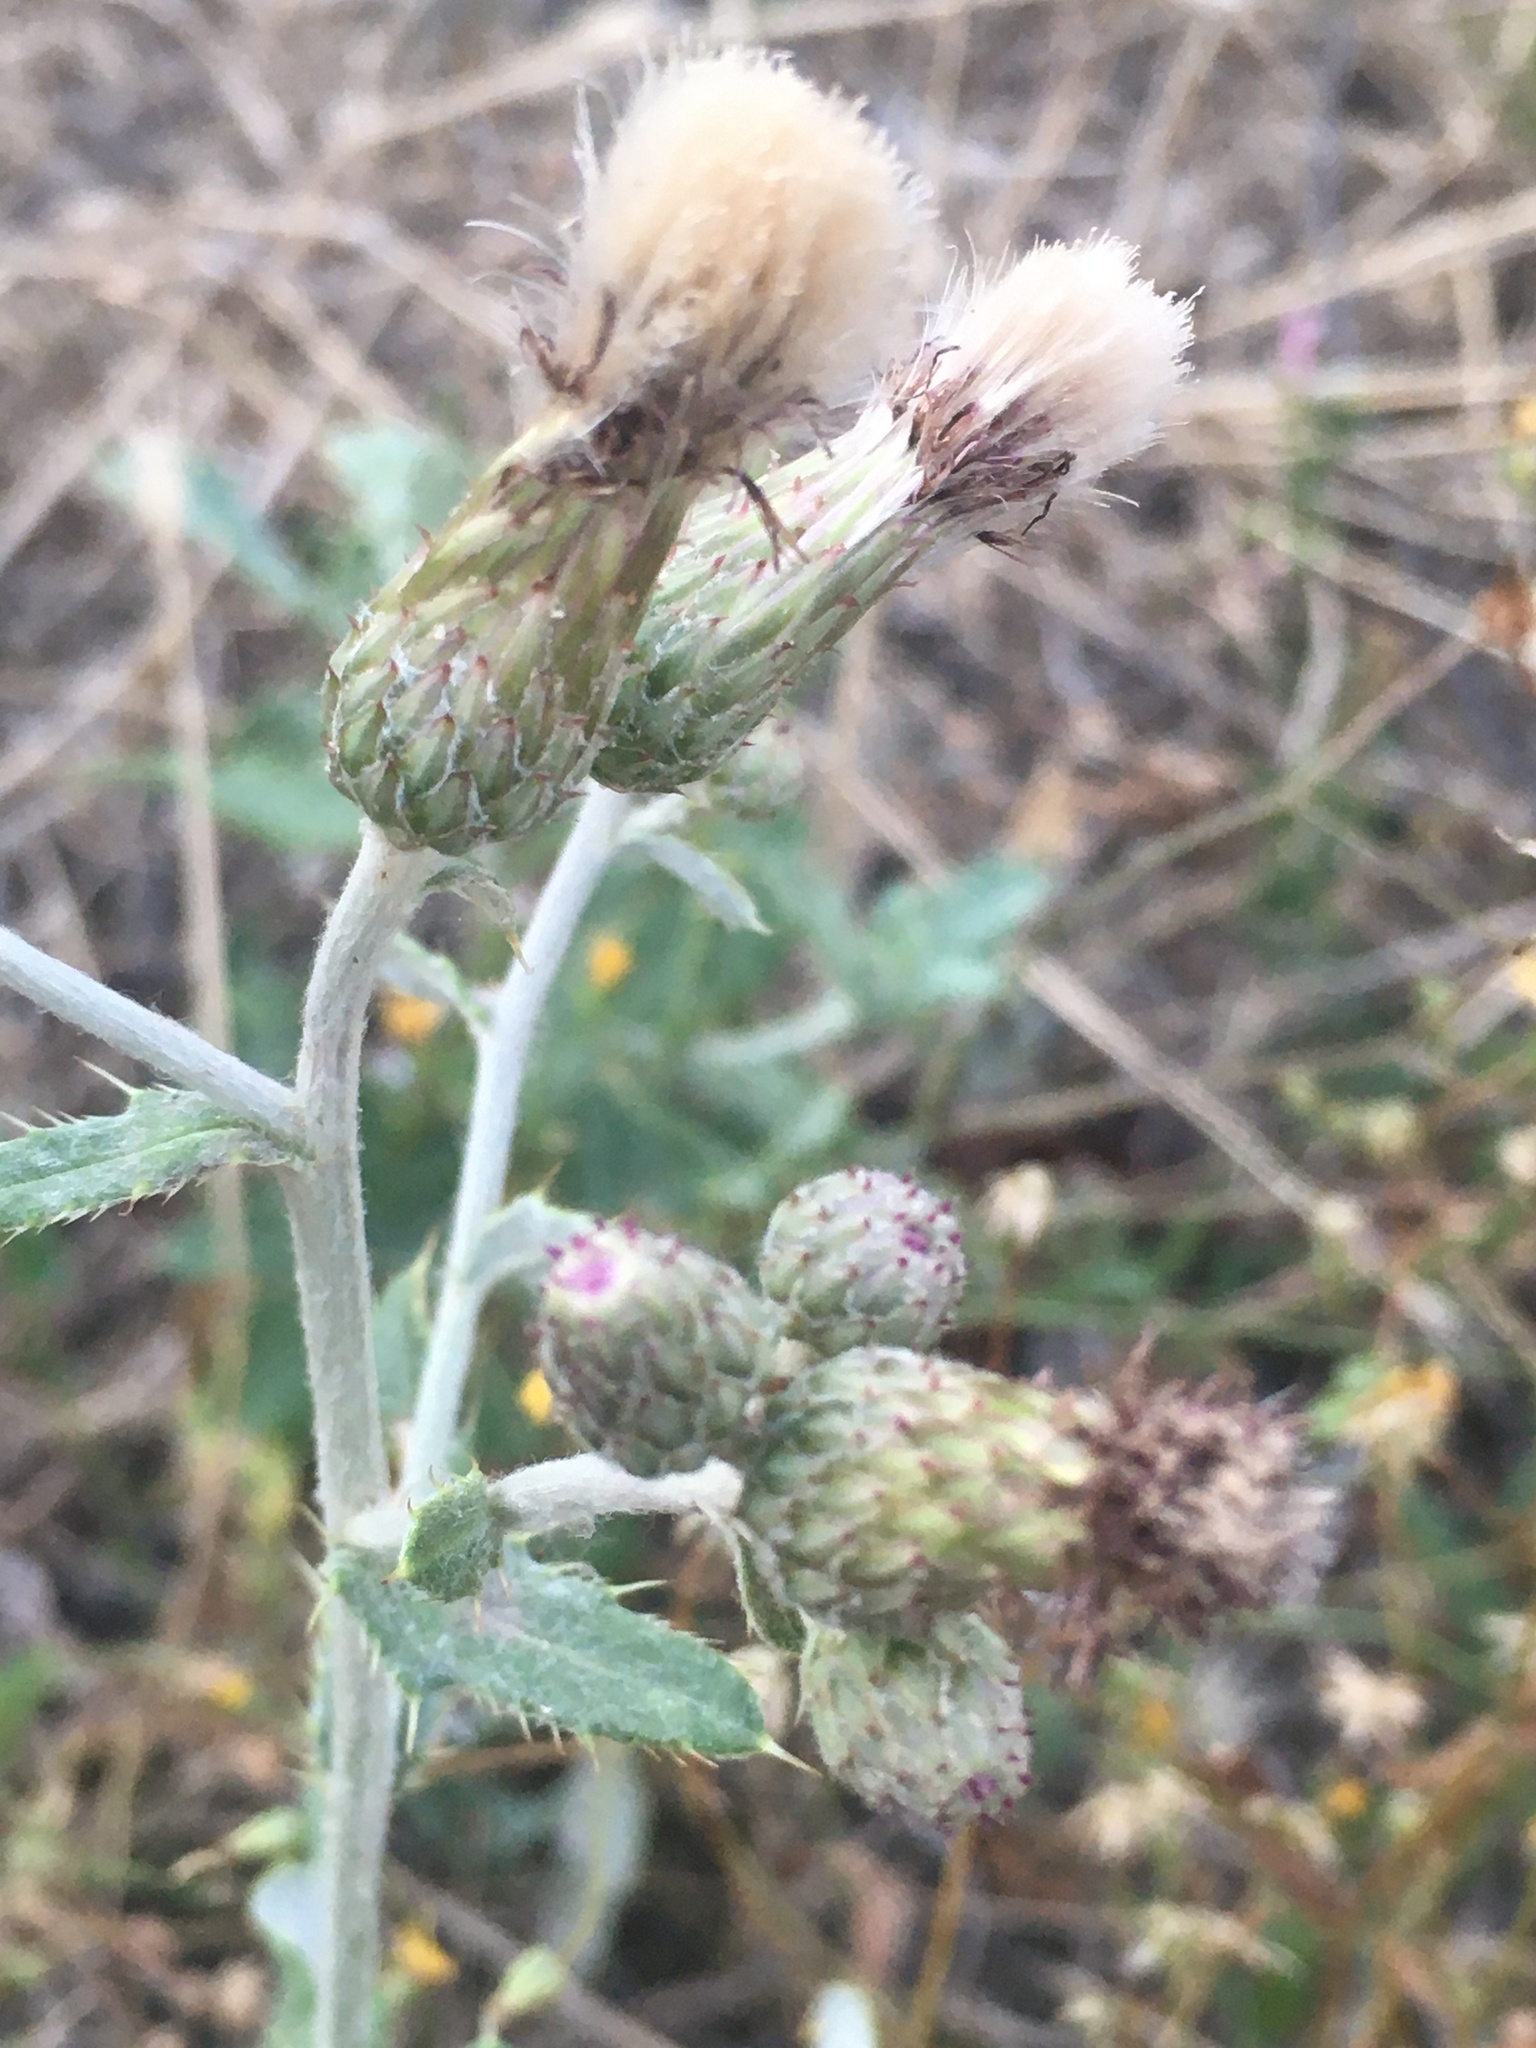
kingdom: Plantae
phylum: Tracheophyta
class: Magnoliopsida
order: Asterales
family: Asteraceae
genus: Cirsium
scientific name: Cirsium arvense
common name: Creeping thistle
